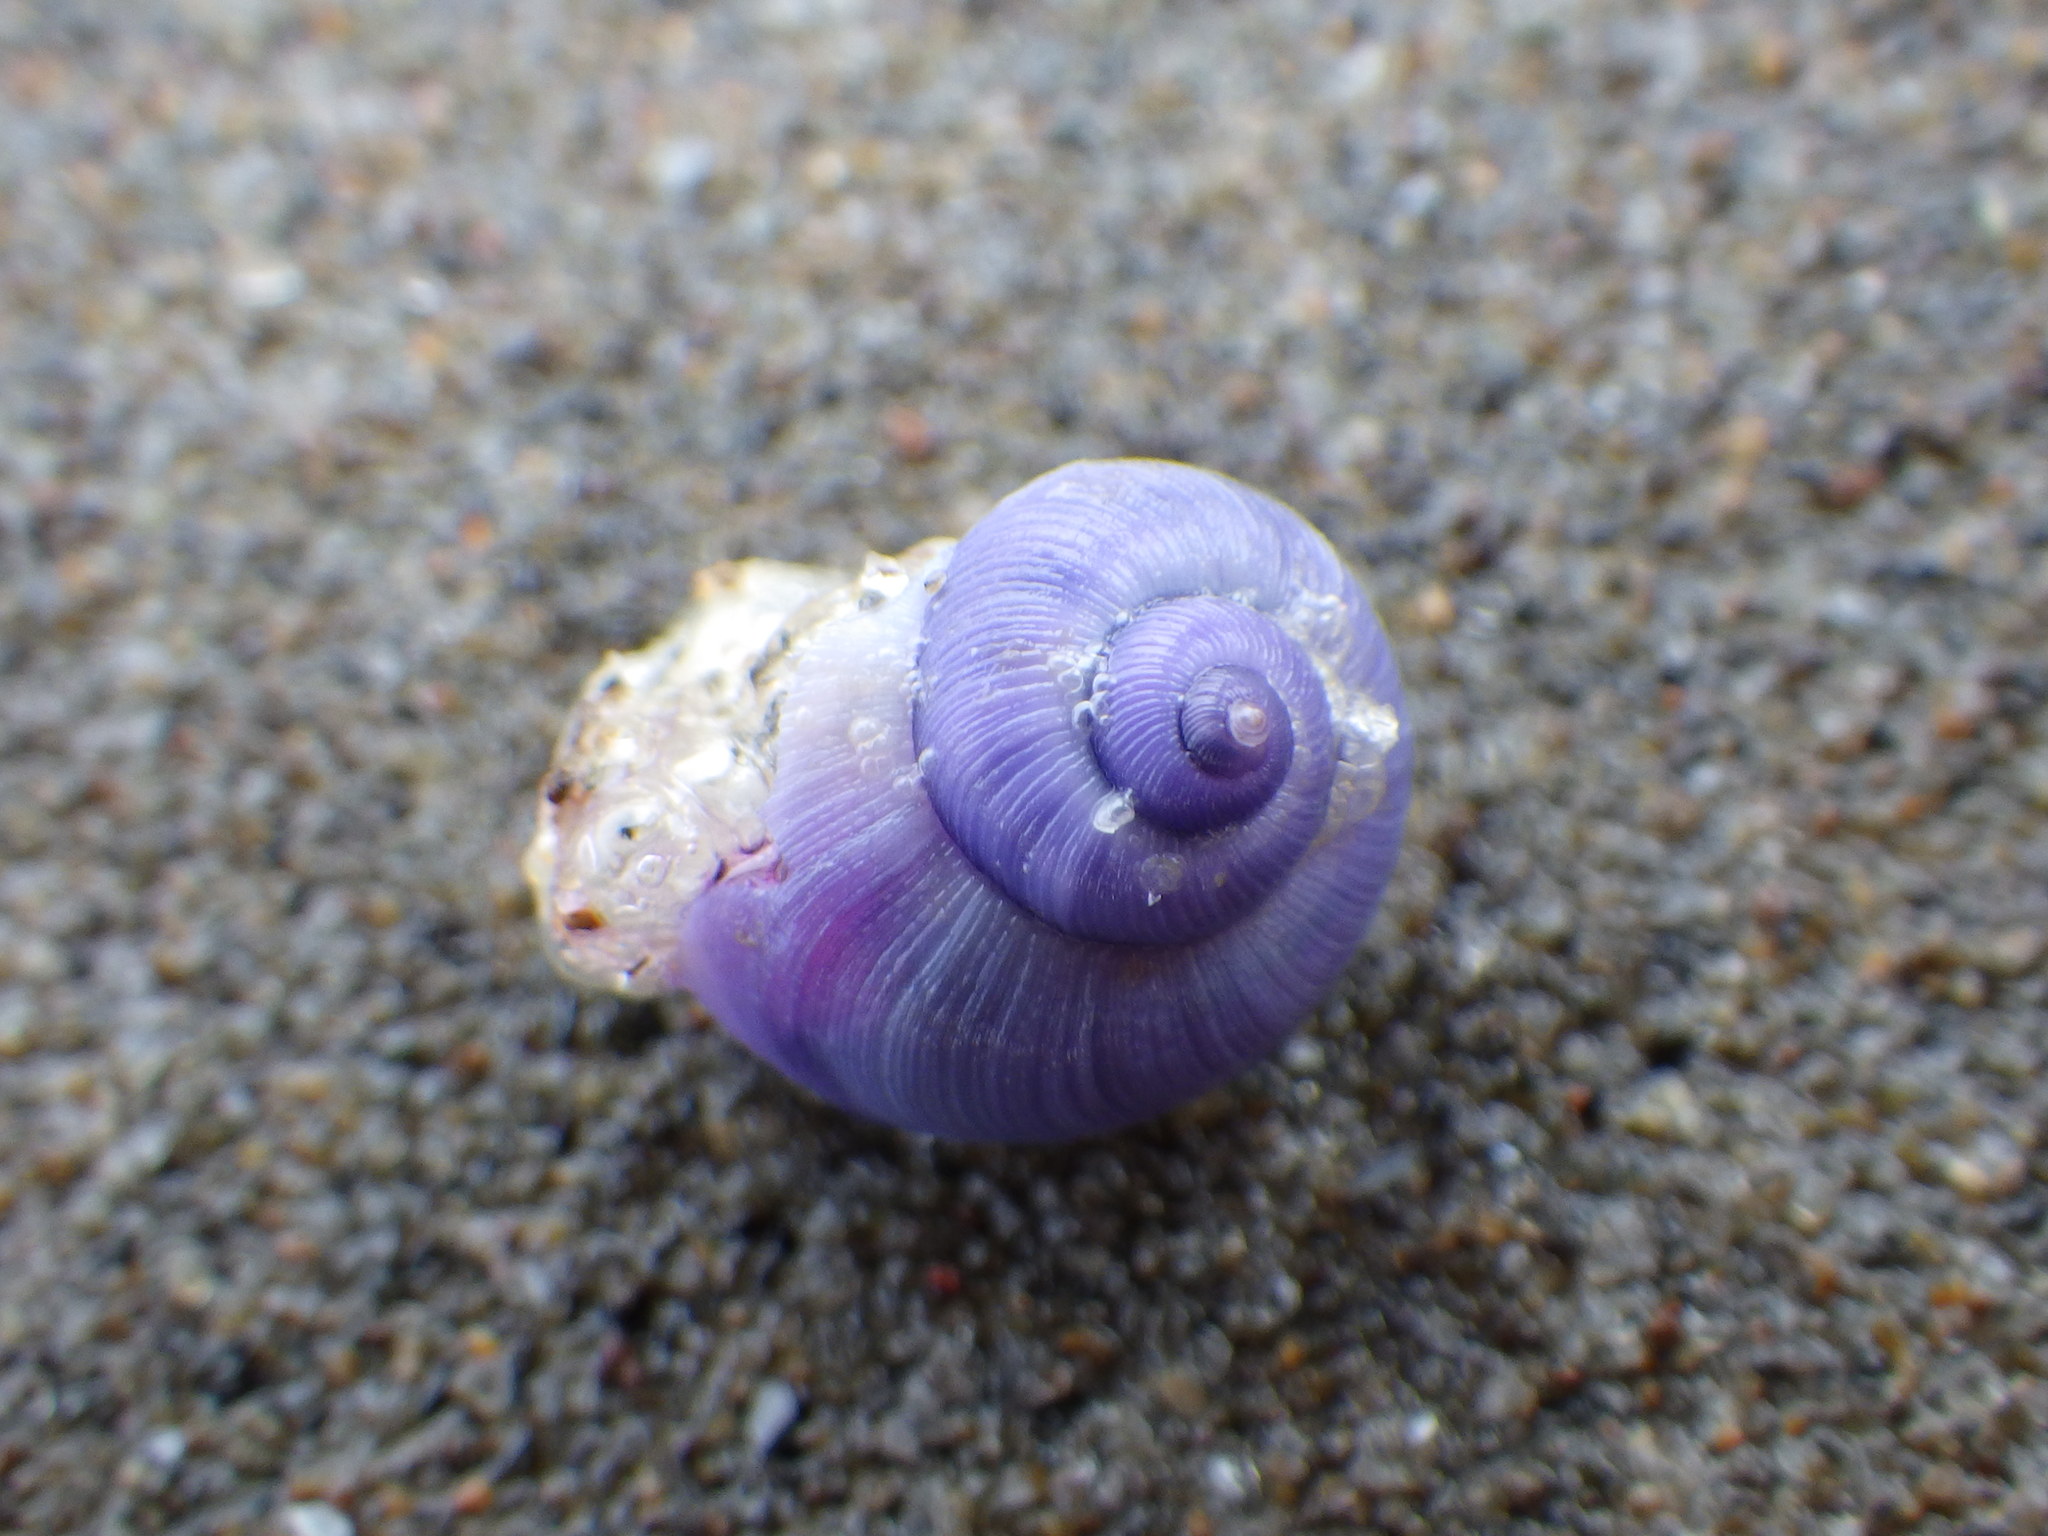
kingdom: Animalia
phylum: Mollusca
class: Gastropoda
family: Epitoniidae
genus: Janthina
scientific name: Janthina exigua
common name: Dwarf janthina
